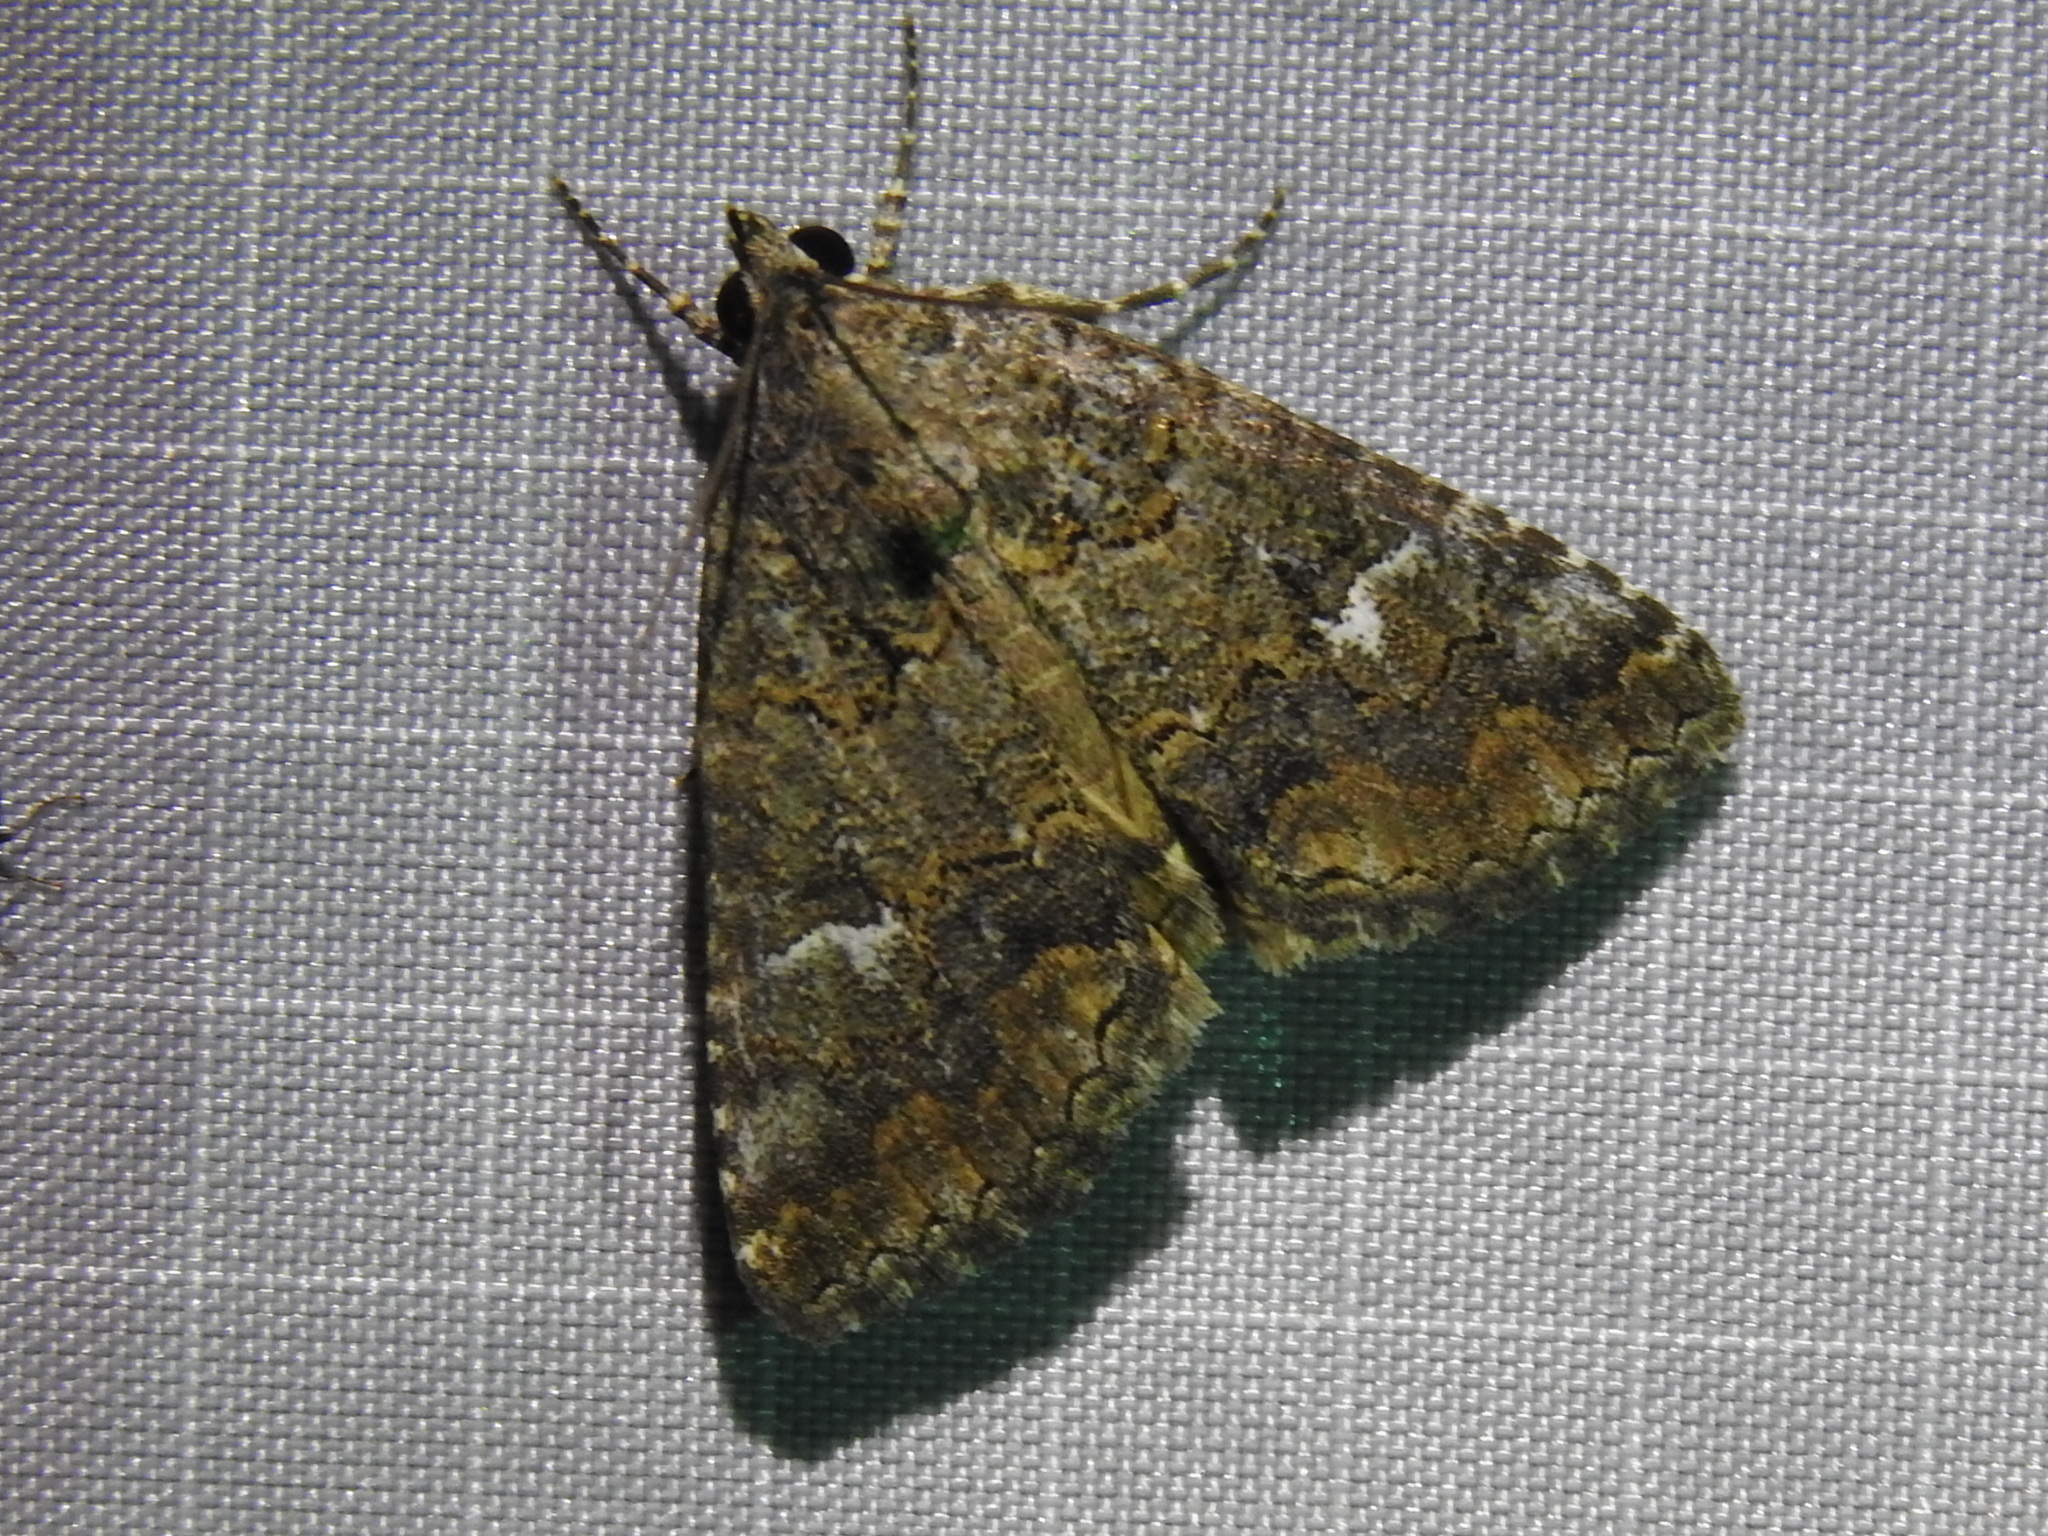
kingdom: Animalia
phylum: Arthropoda
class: Insecta
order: Lepidoptera
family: Erebidae
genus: Eubolina
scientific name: Eubolina impartialis
